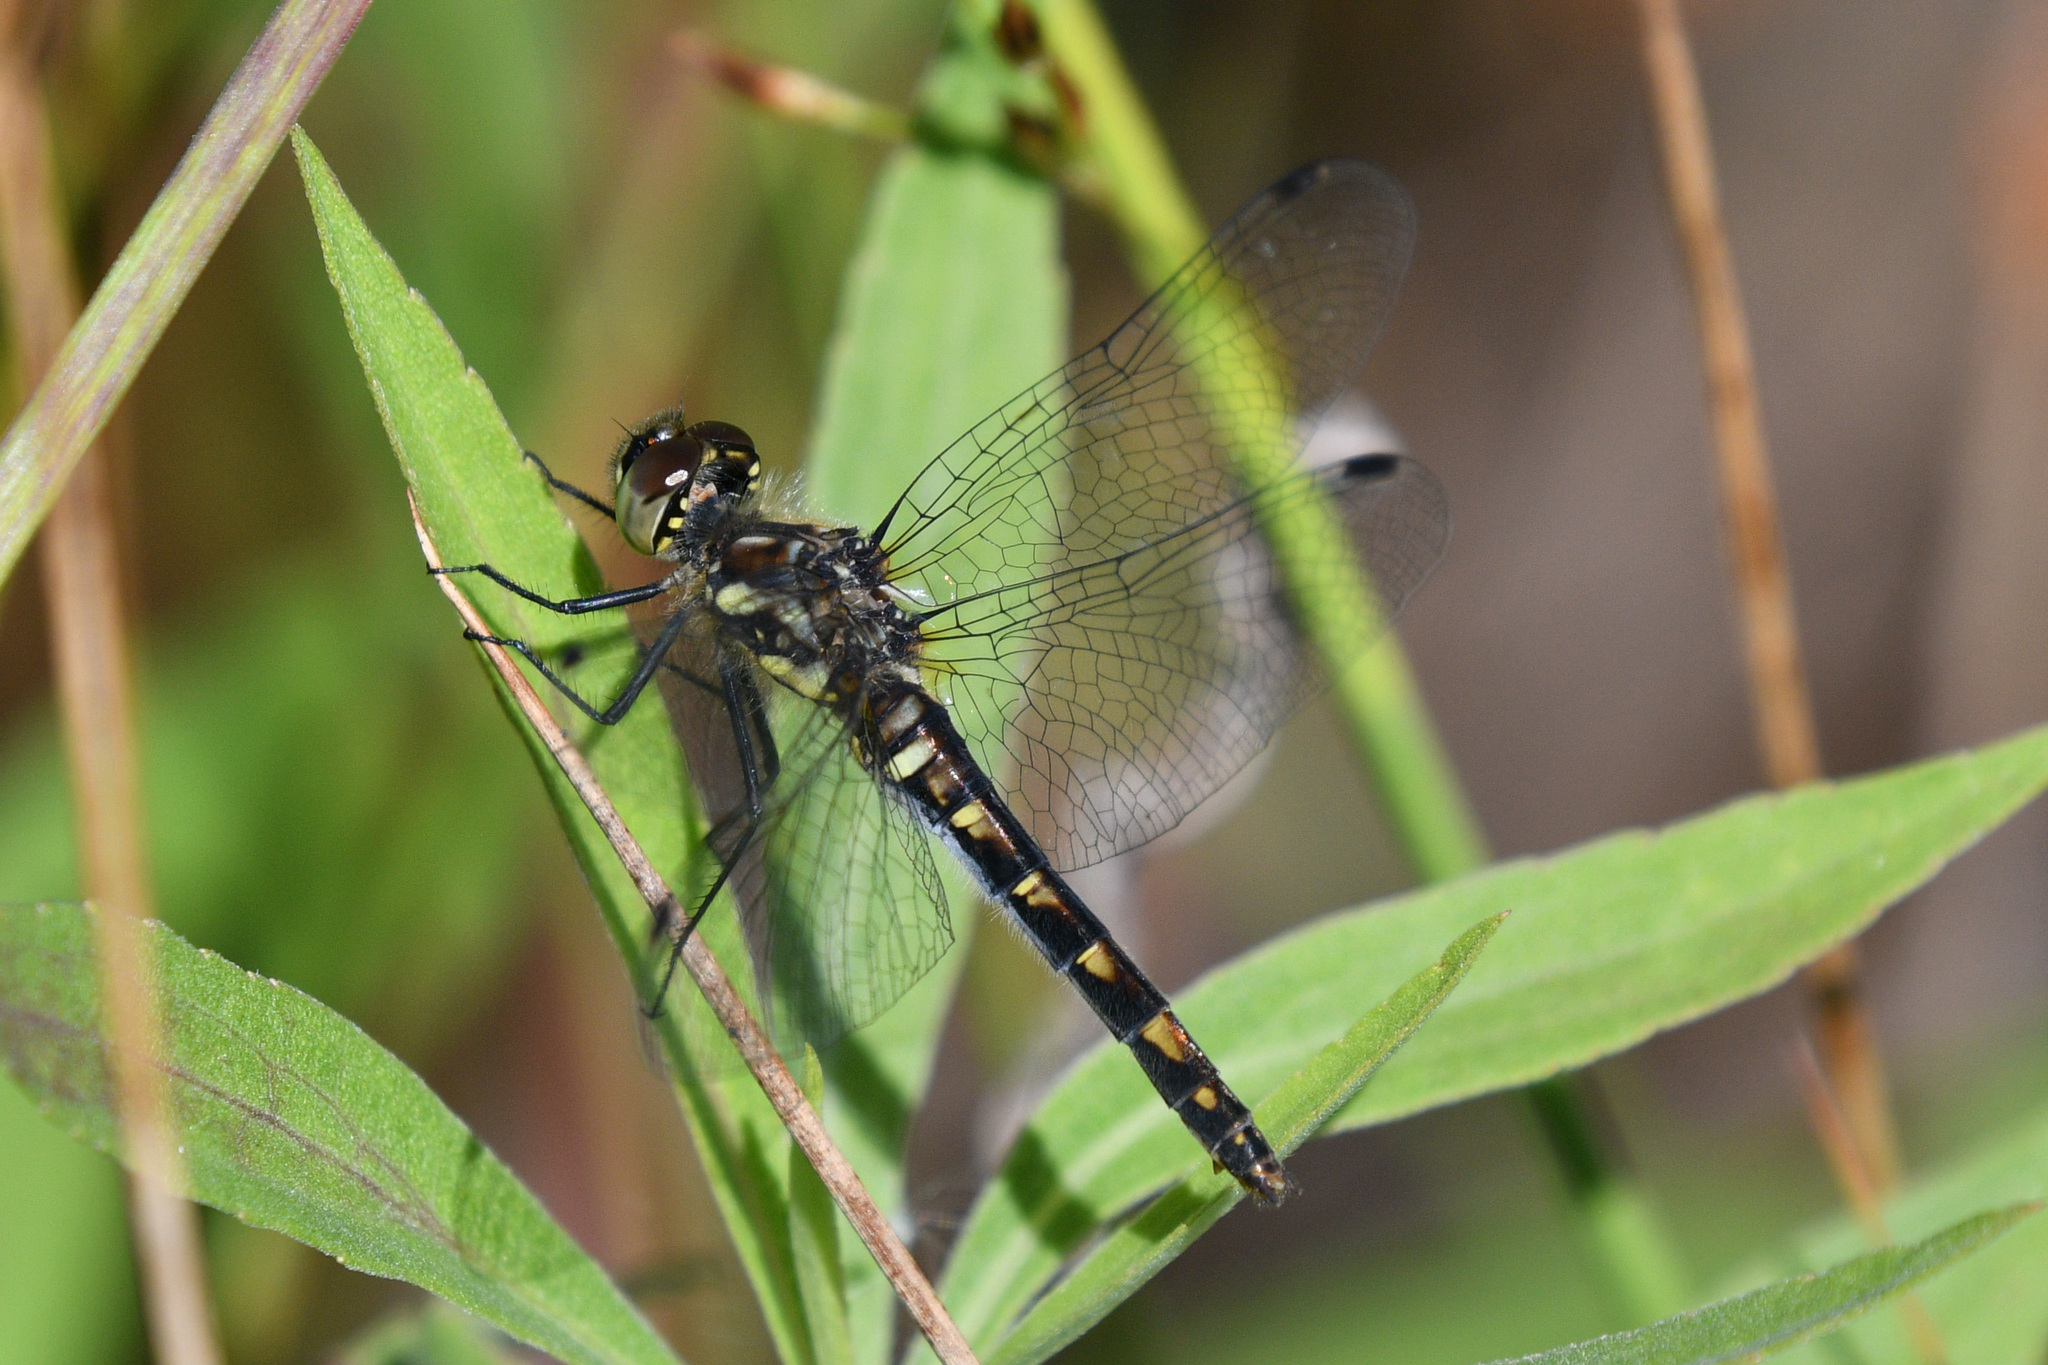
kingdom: Animalia
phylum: Arthropoda
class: Insecta
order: Odonata
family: Libellulidae
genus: Sympetrum
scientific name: Sympetrum danae
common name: Black darter
